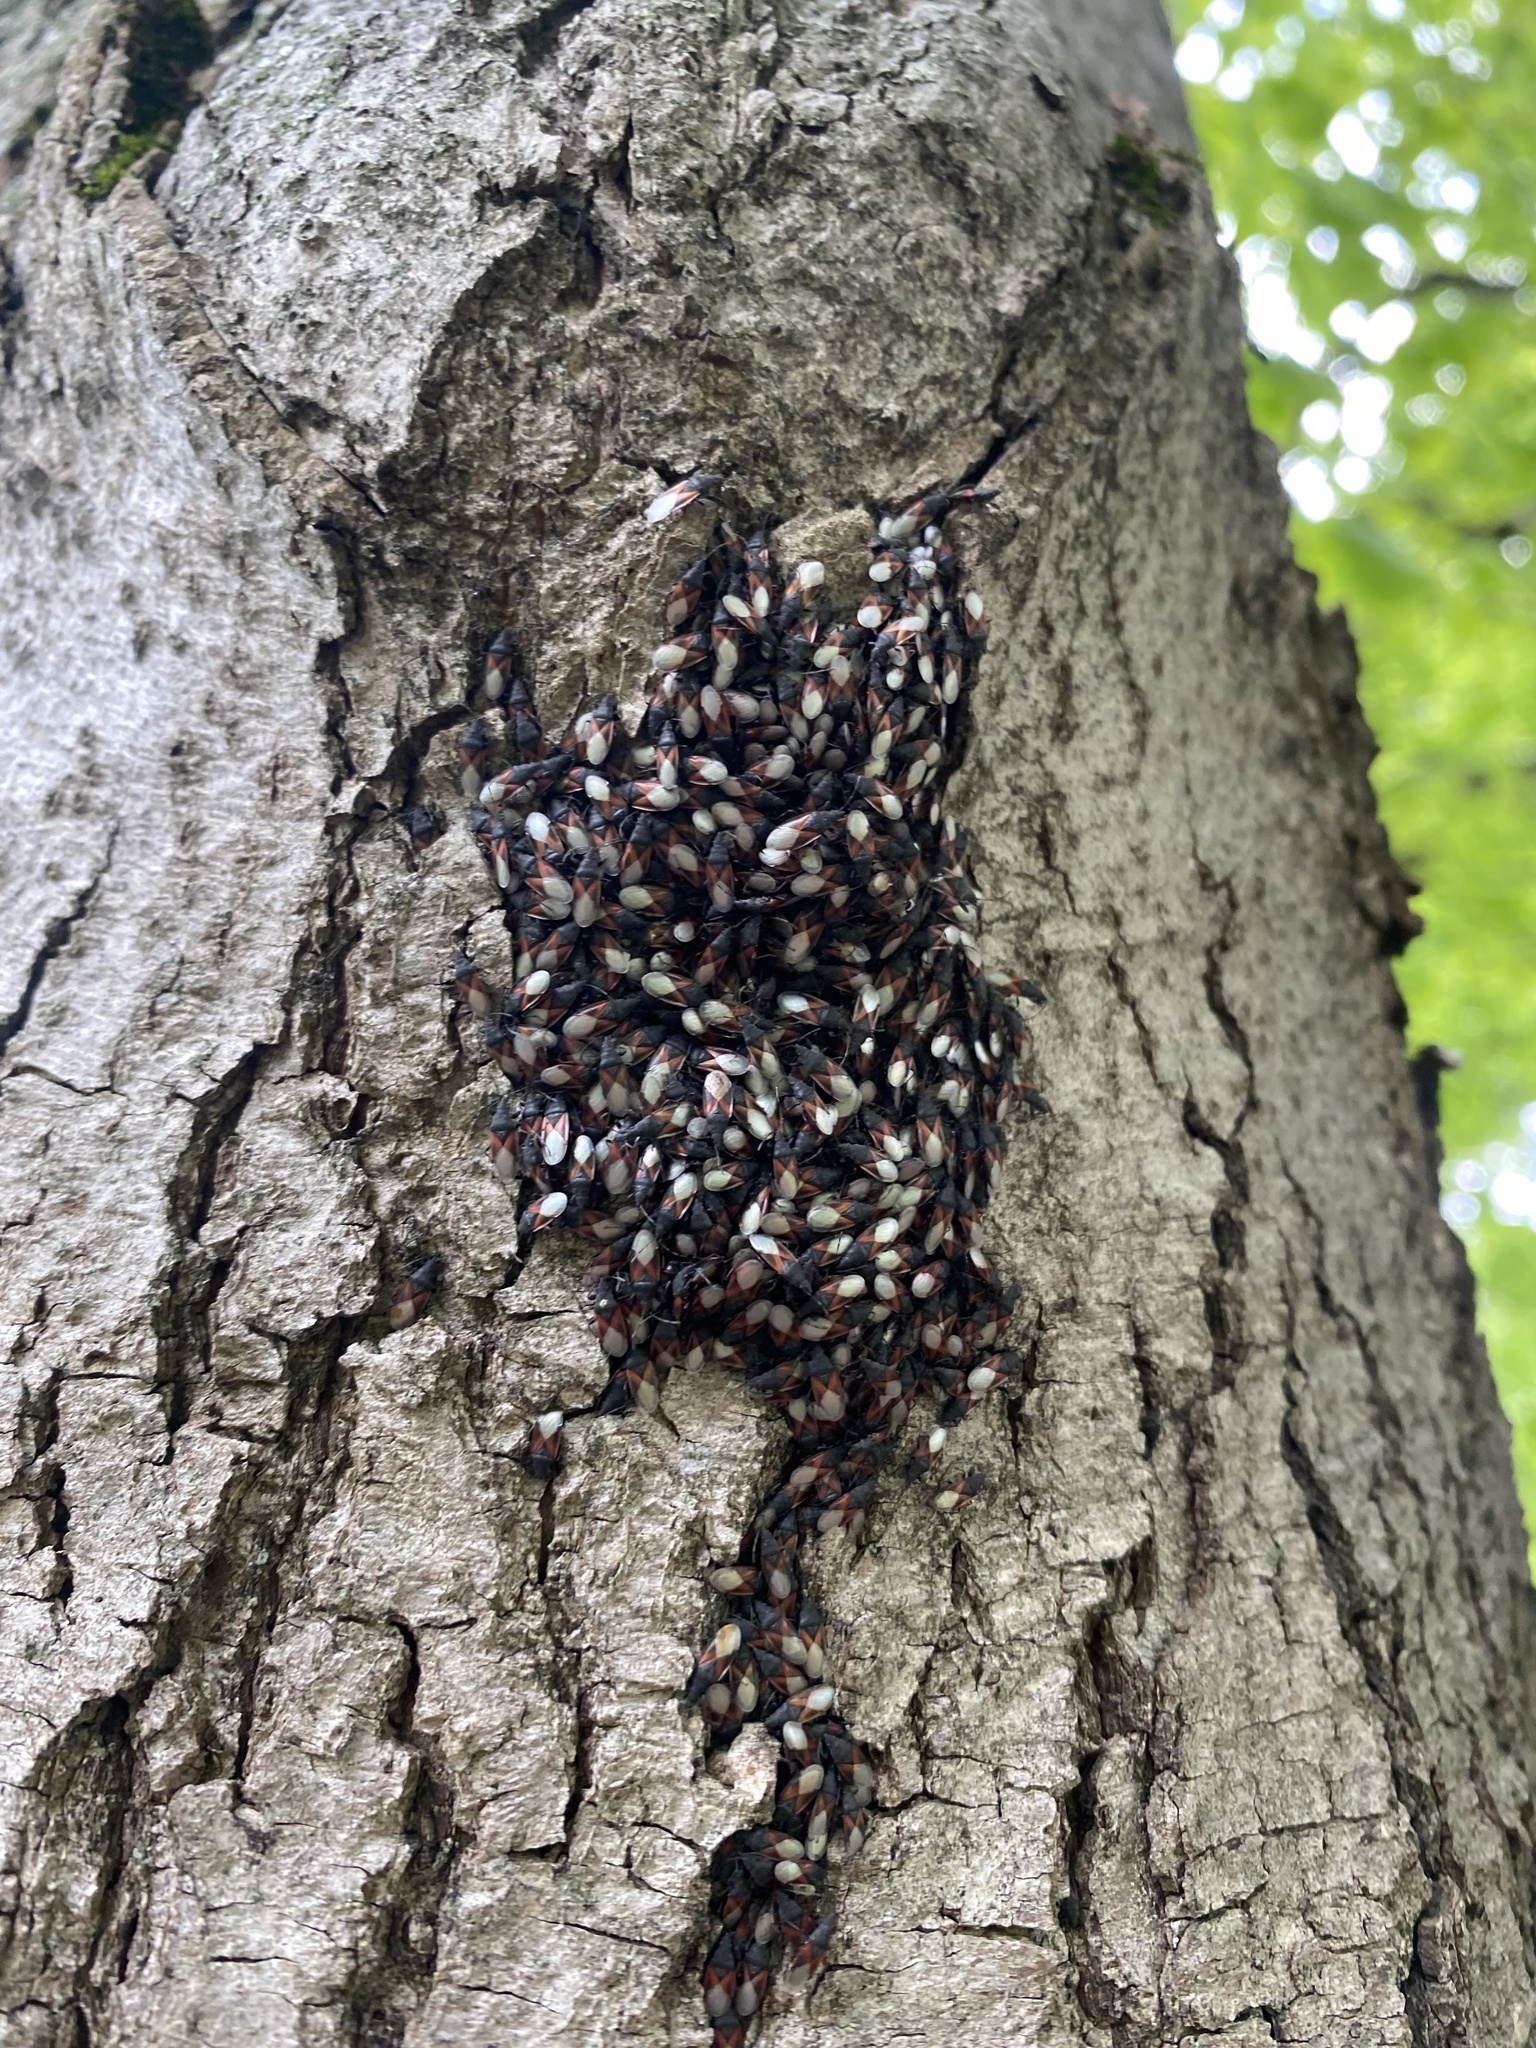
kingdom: Animalia
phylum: Arthropoda
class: Insecta
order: Hemiptera
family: Oxycarenidae
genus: Oxycarenus
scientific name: Oxycarenus lavaterae
